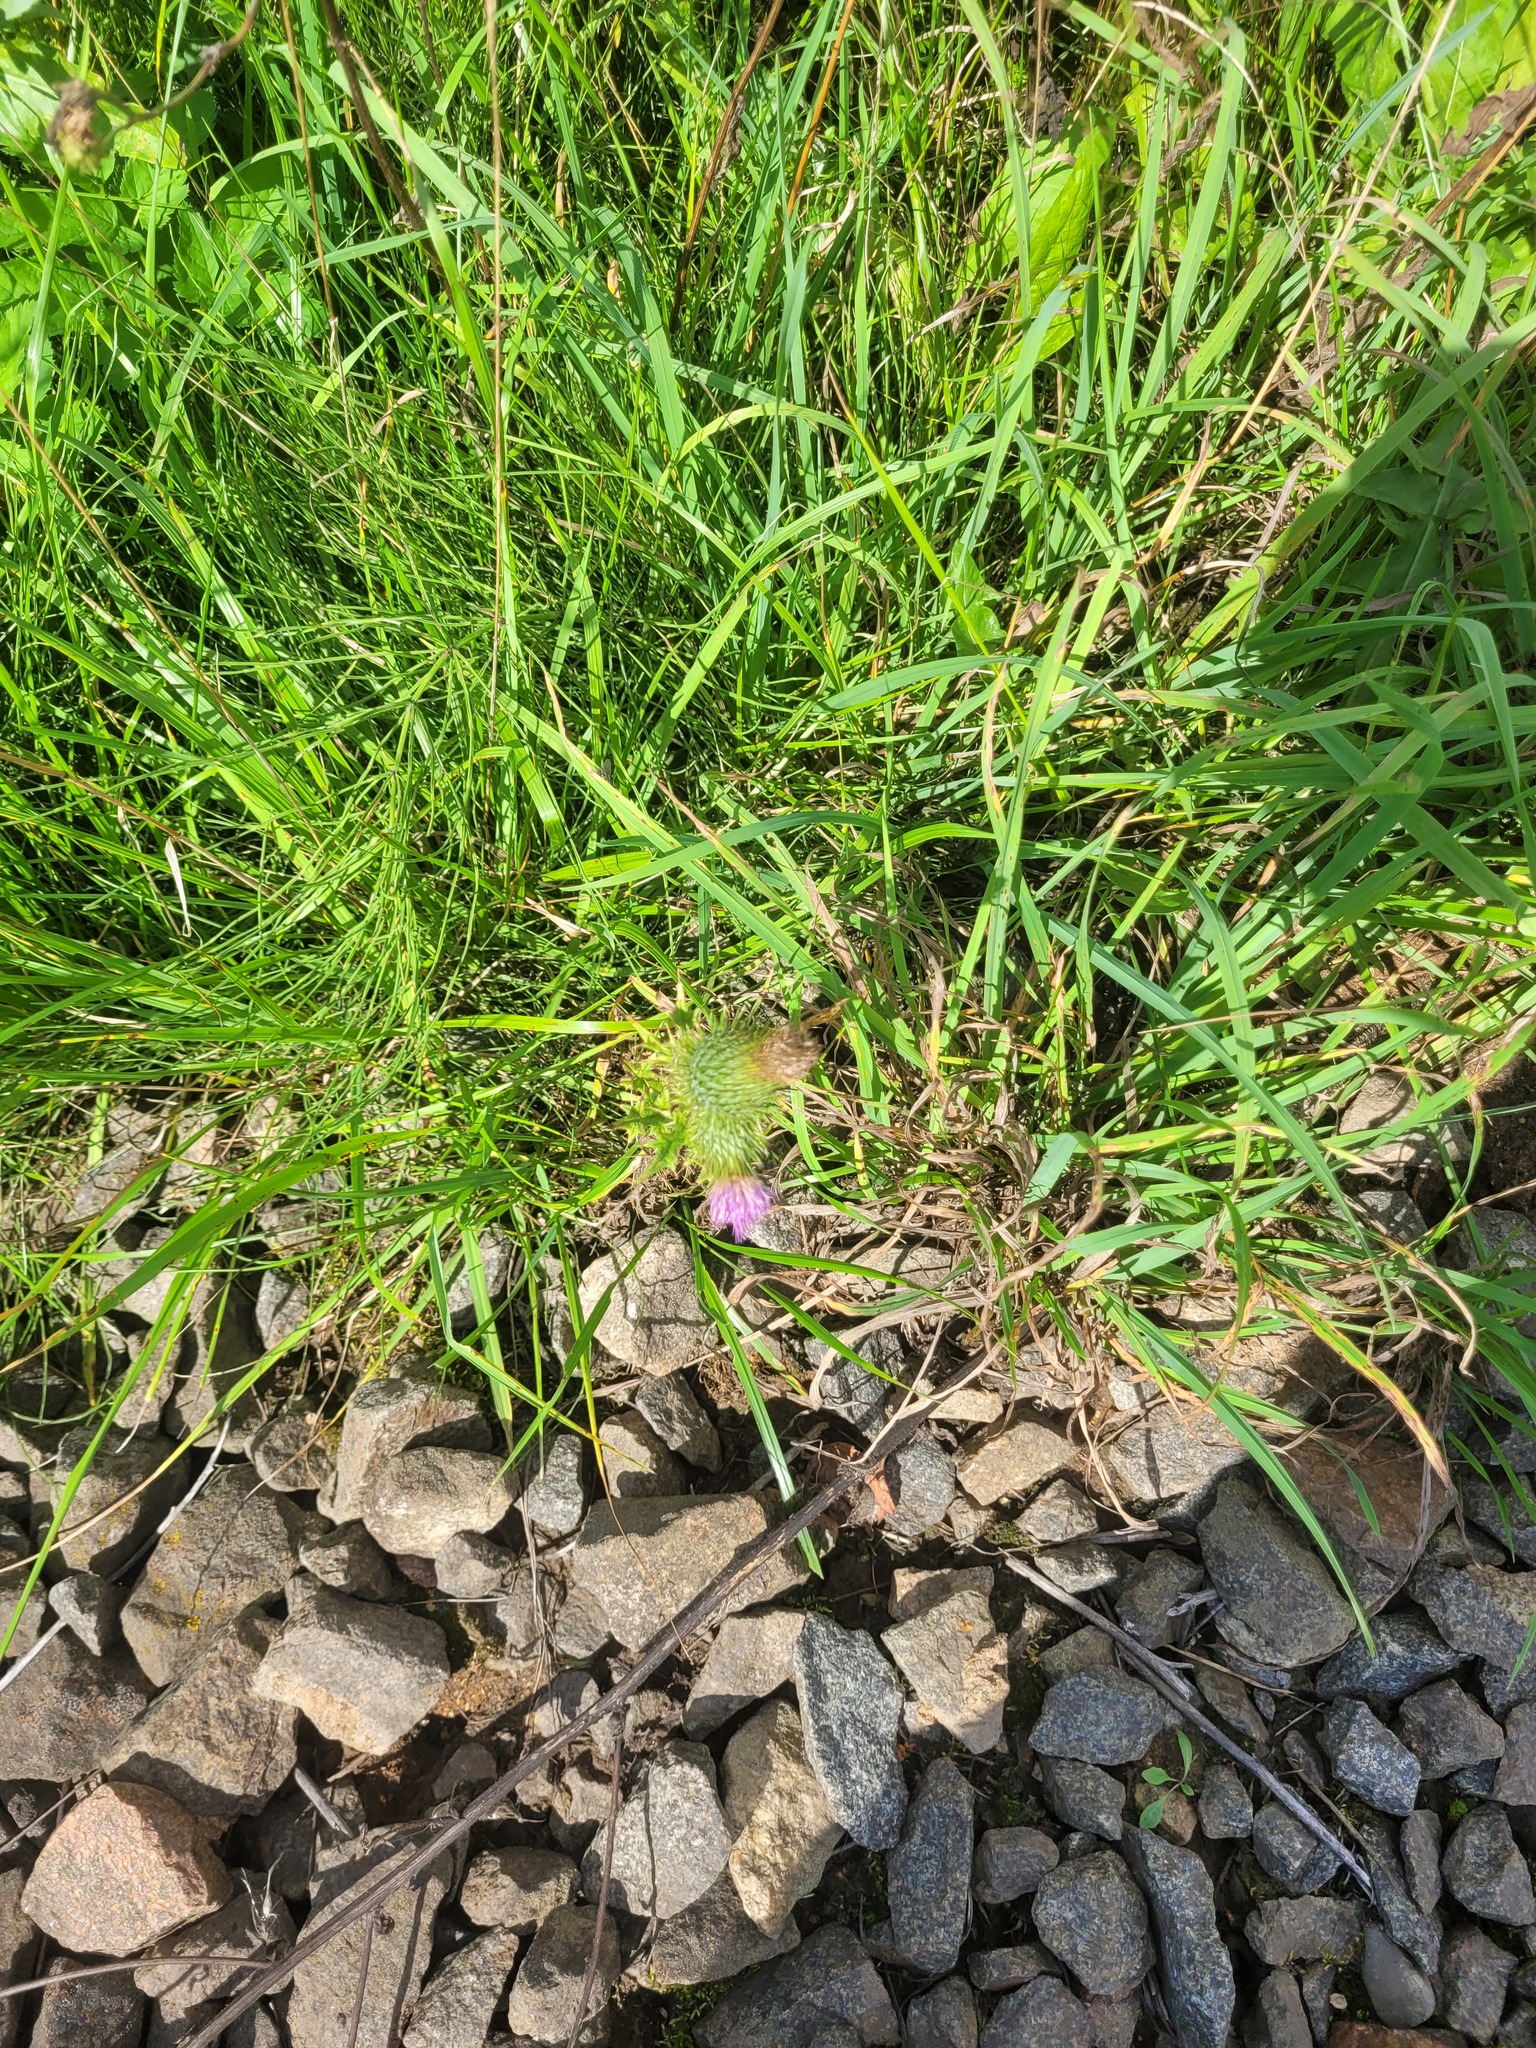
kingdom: Plantae
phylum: Tracheophyta
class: Magnoliopsida
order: Asterales
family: Asteraceae
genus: Cirsium
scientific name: Cirsium vulgare
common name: Bull thistle
